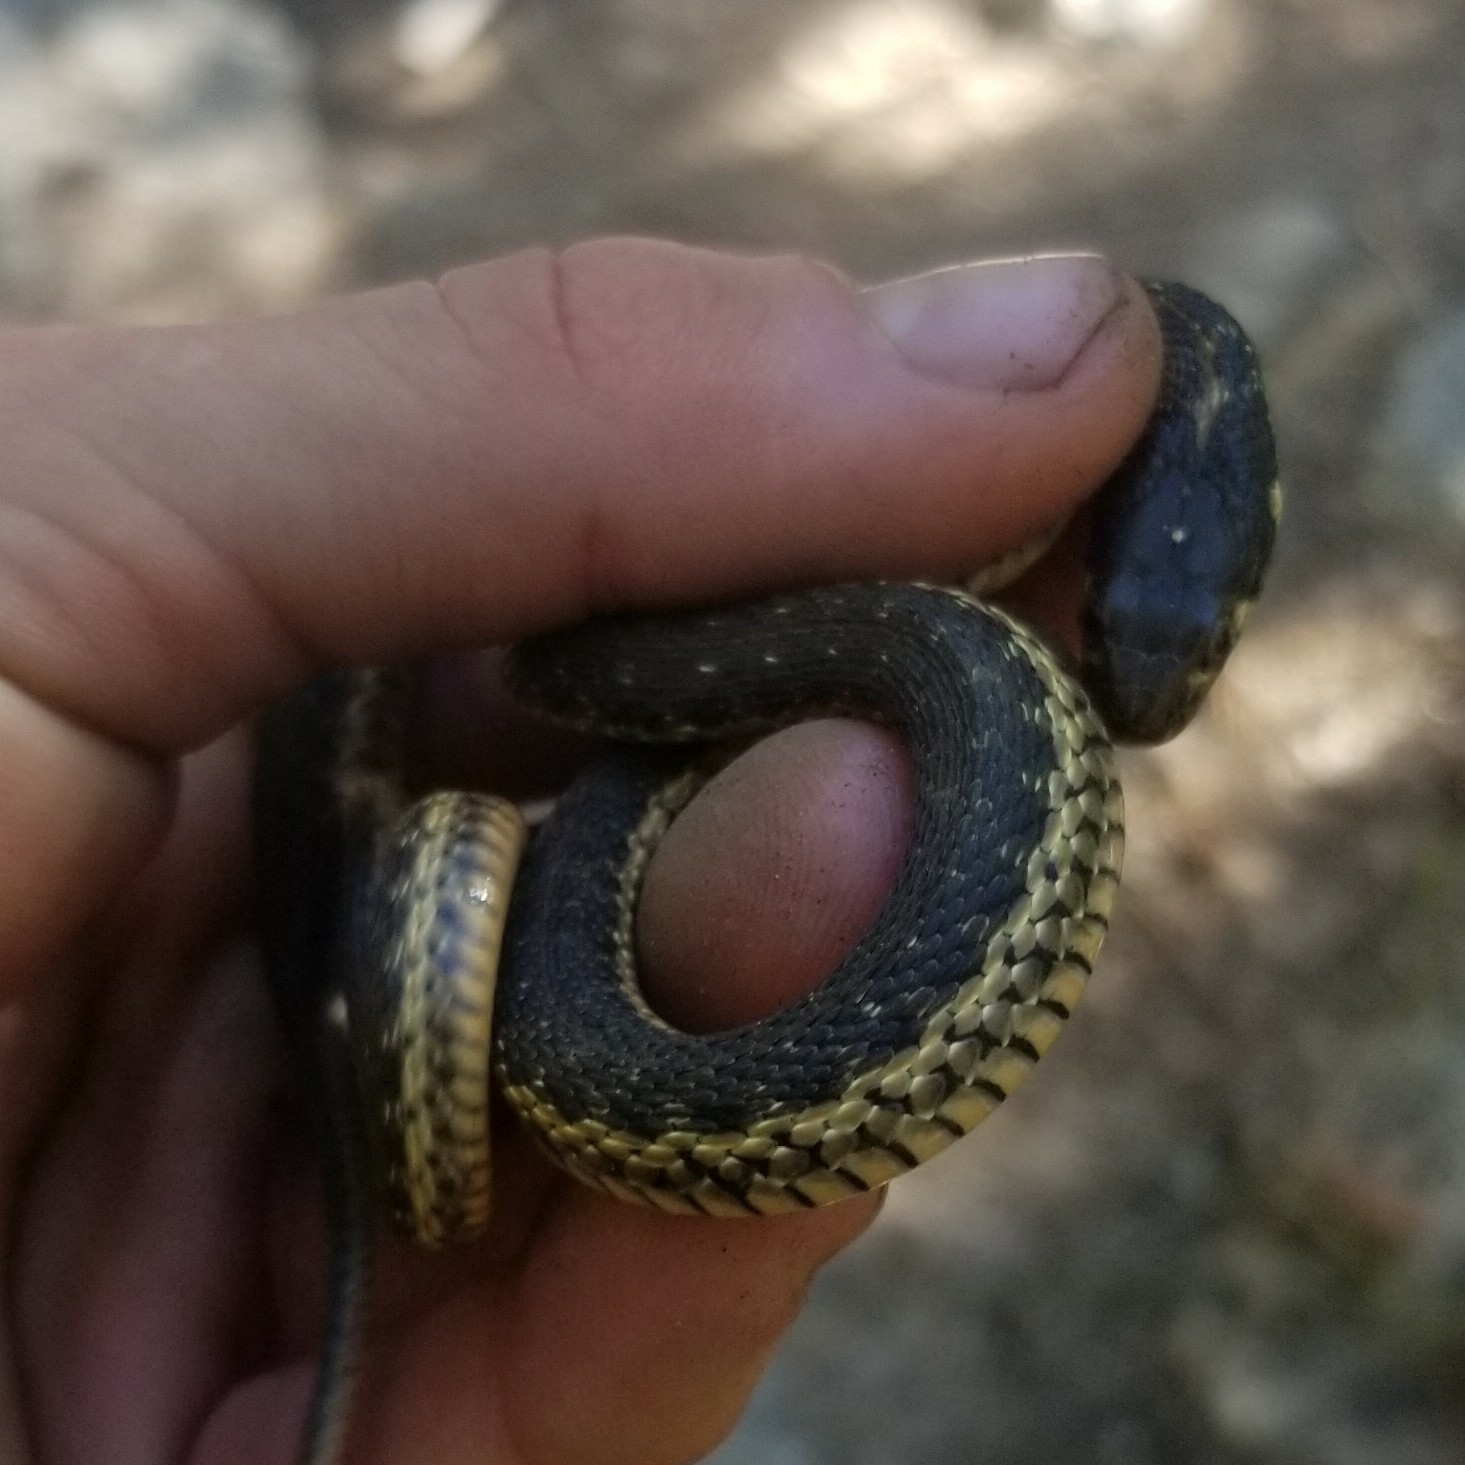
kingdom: Animalia
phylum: Chordata
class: Squamata
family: Colubridae
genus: Thamnophis
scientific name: Thamnophis couchii
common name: Western aquatic garter snake
